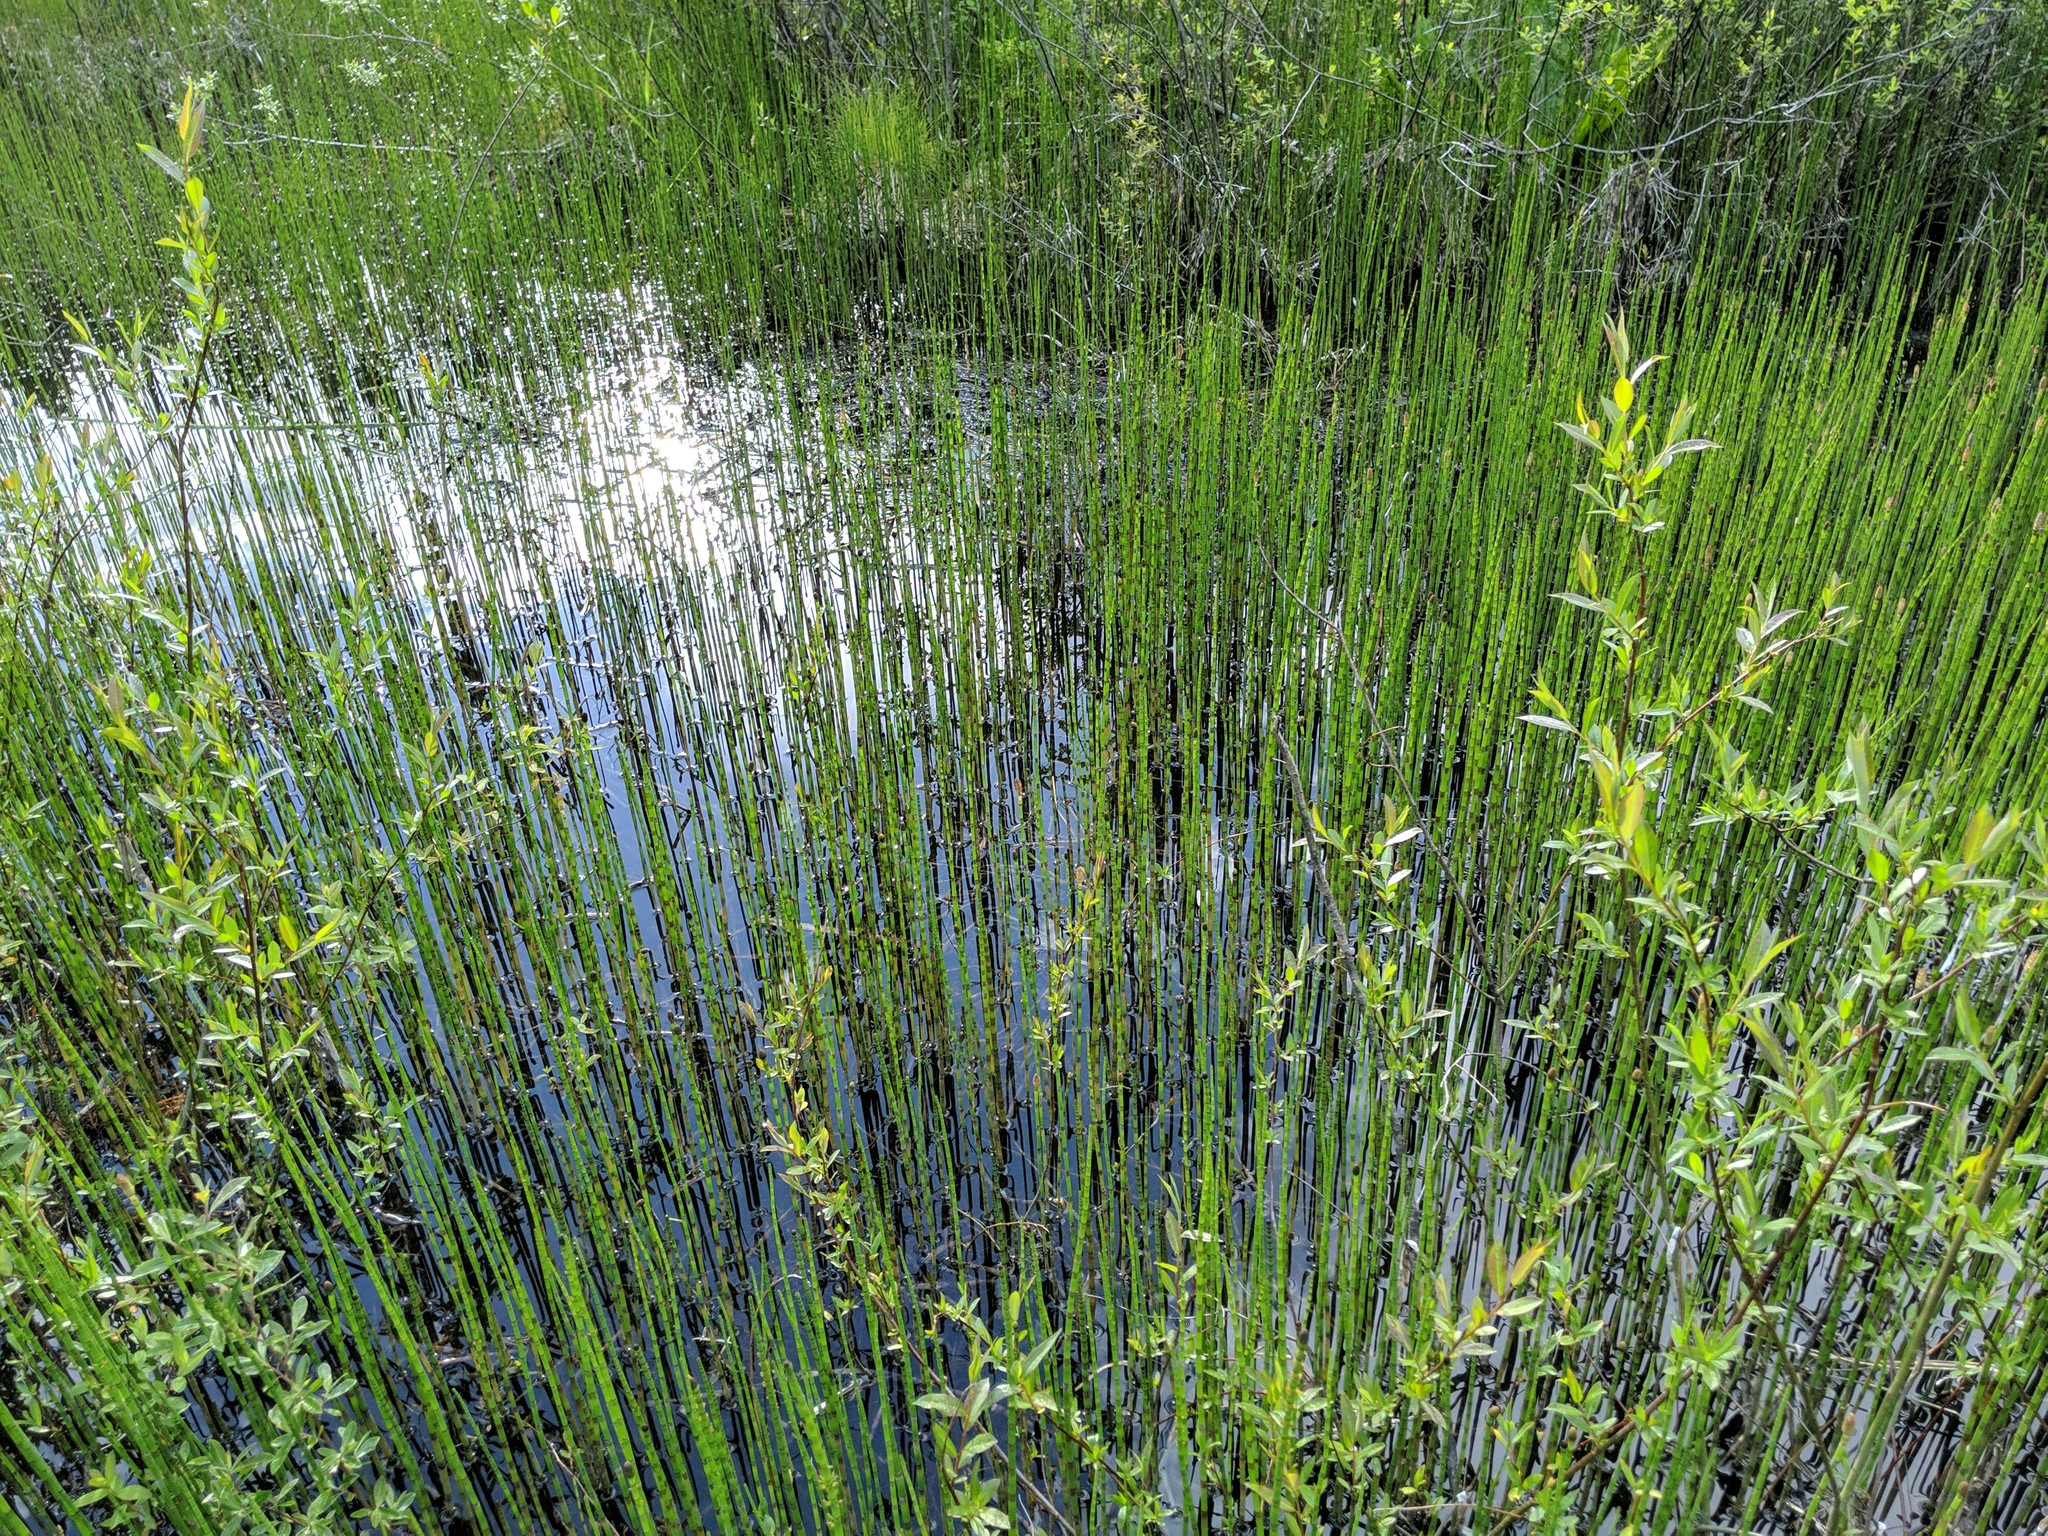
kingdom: Plantae
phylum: Tracheophyta
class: Polypodiopsida
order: Equisetales
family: Equisetaceae
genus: Equisetum
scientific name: Equisetum fluviatile
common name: Water horsetail
